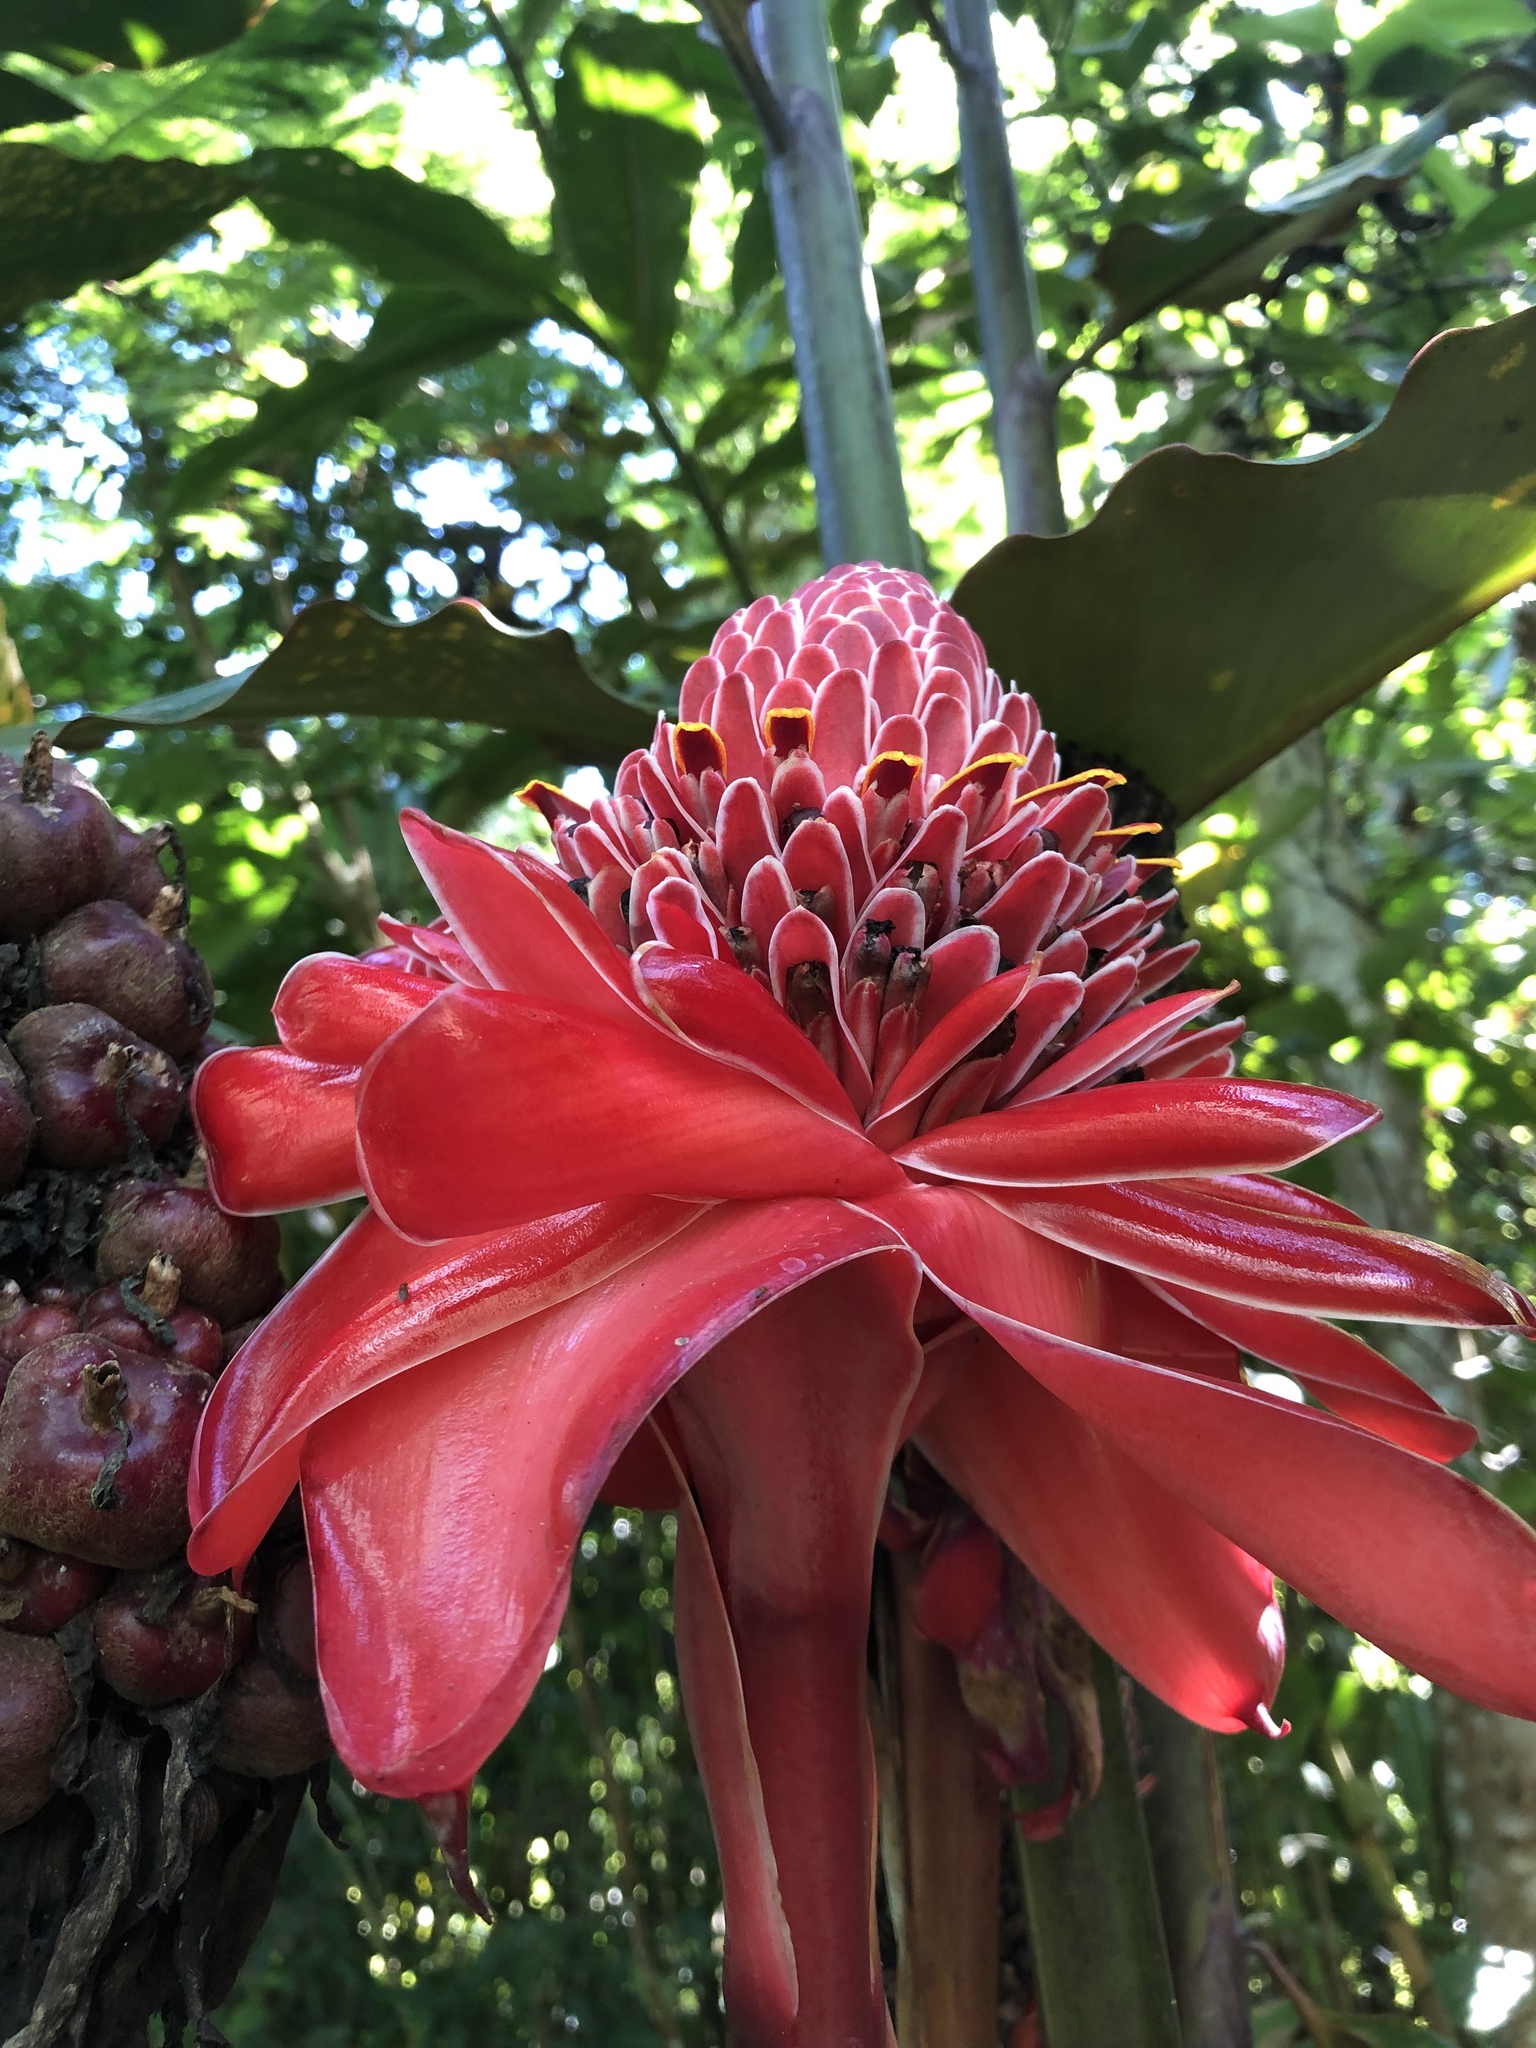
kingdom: Plantae
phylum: Tracheophyta
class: Liliopsida
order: Zingiberales
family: Zingiberaceae
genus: Etlingera
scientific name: Etlingera elatior
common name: Philippine waxflower
